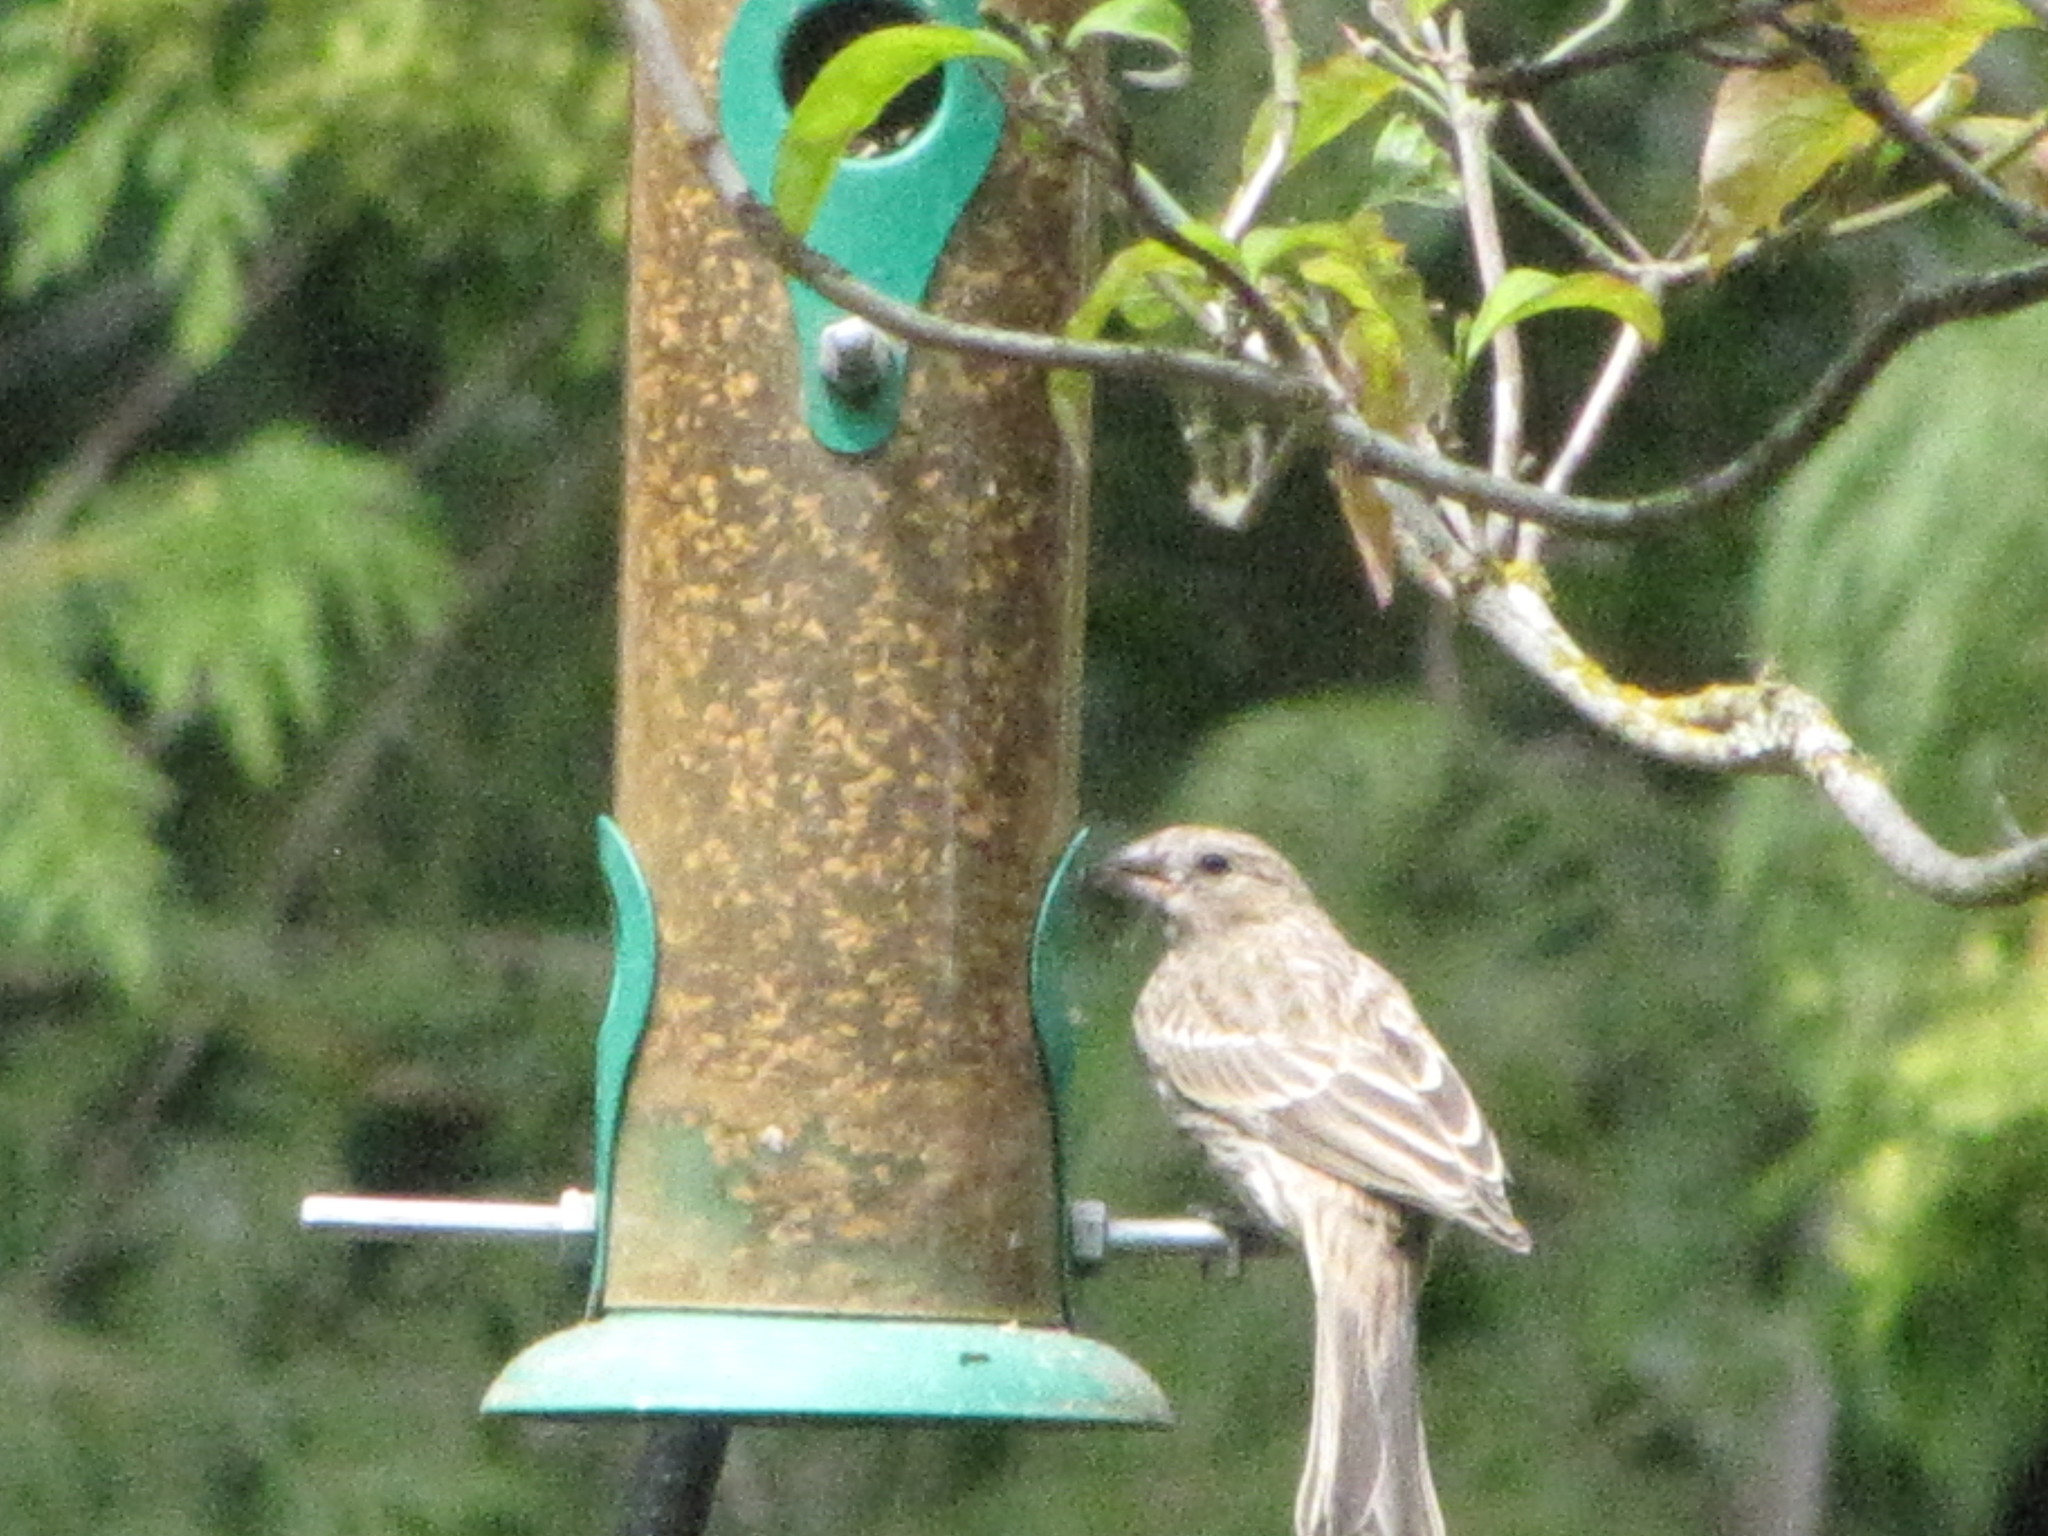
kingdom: Animalia
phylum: Chordata
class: Aves
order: Passeriformes
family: Fringillidae
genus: Haemorhous
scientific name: Haemorhous mexicanus
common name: House finch
